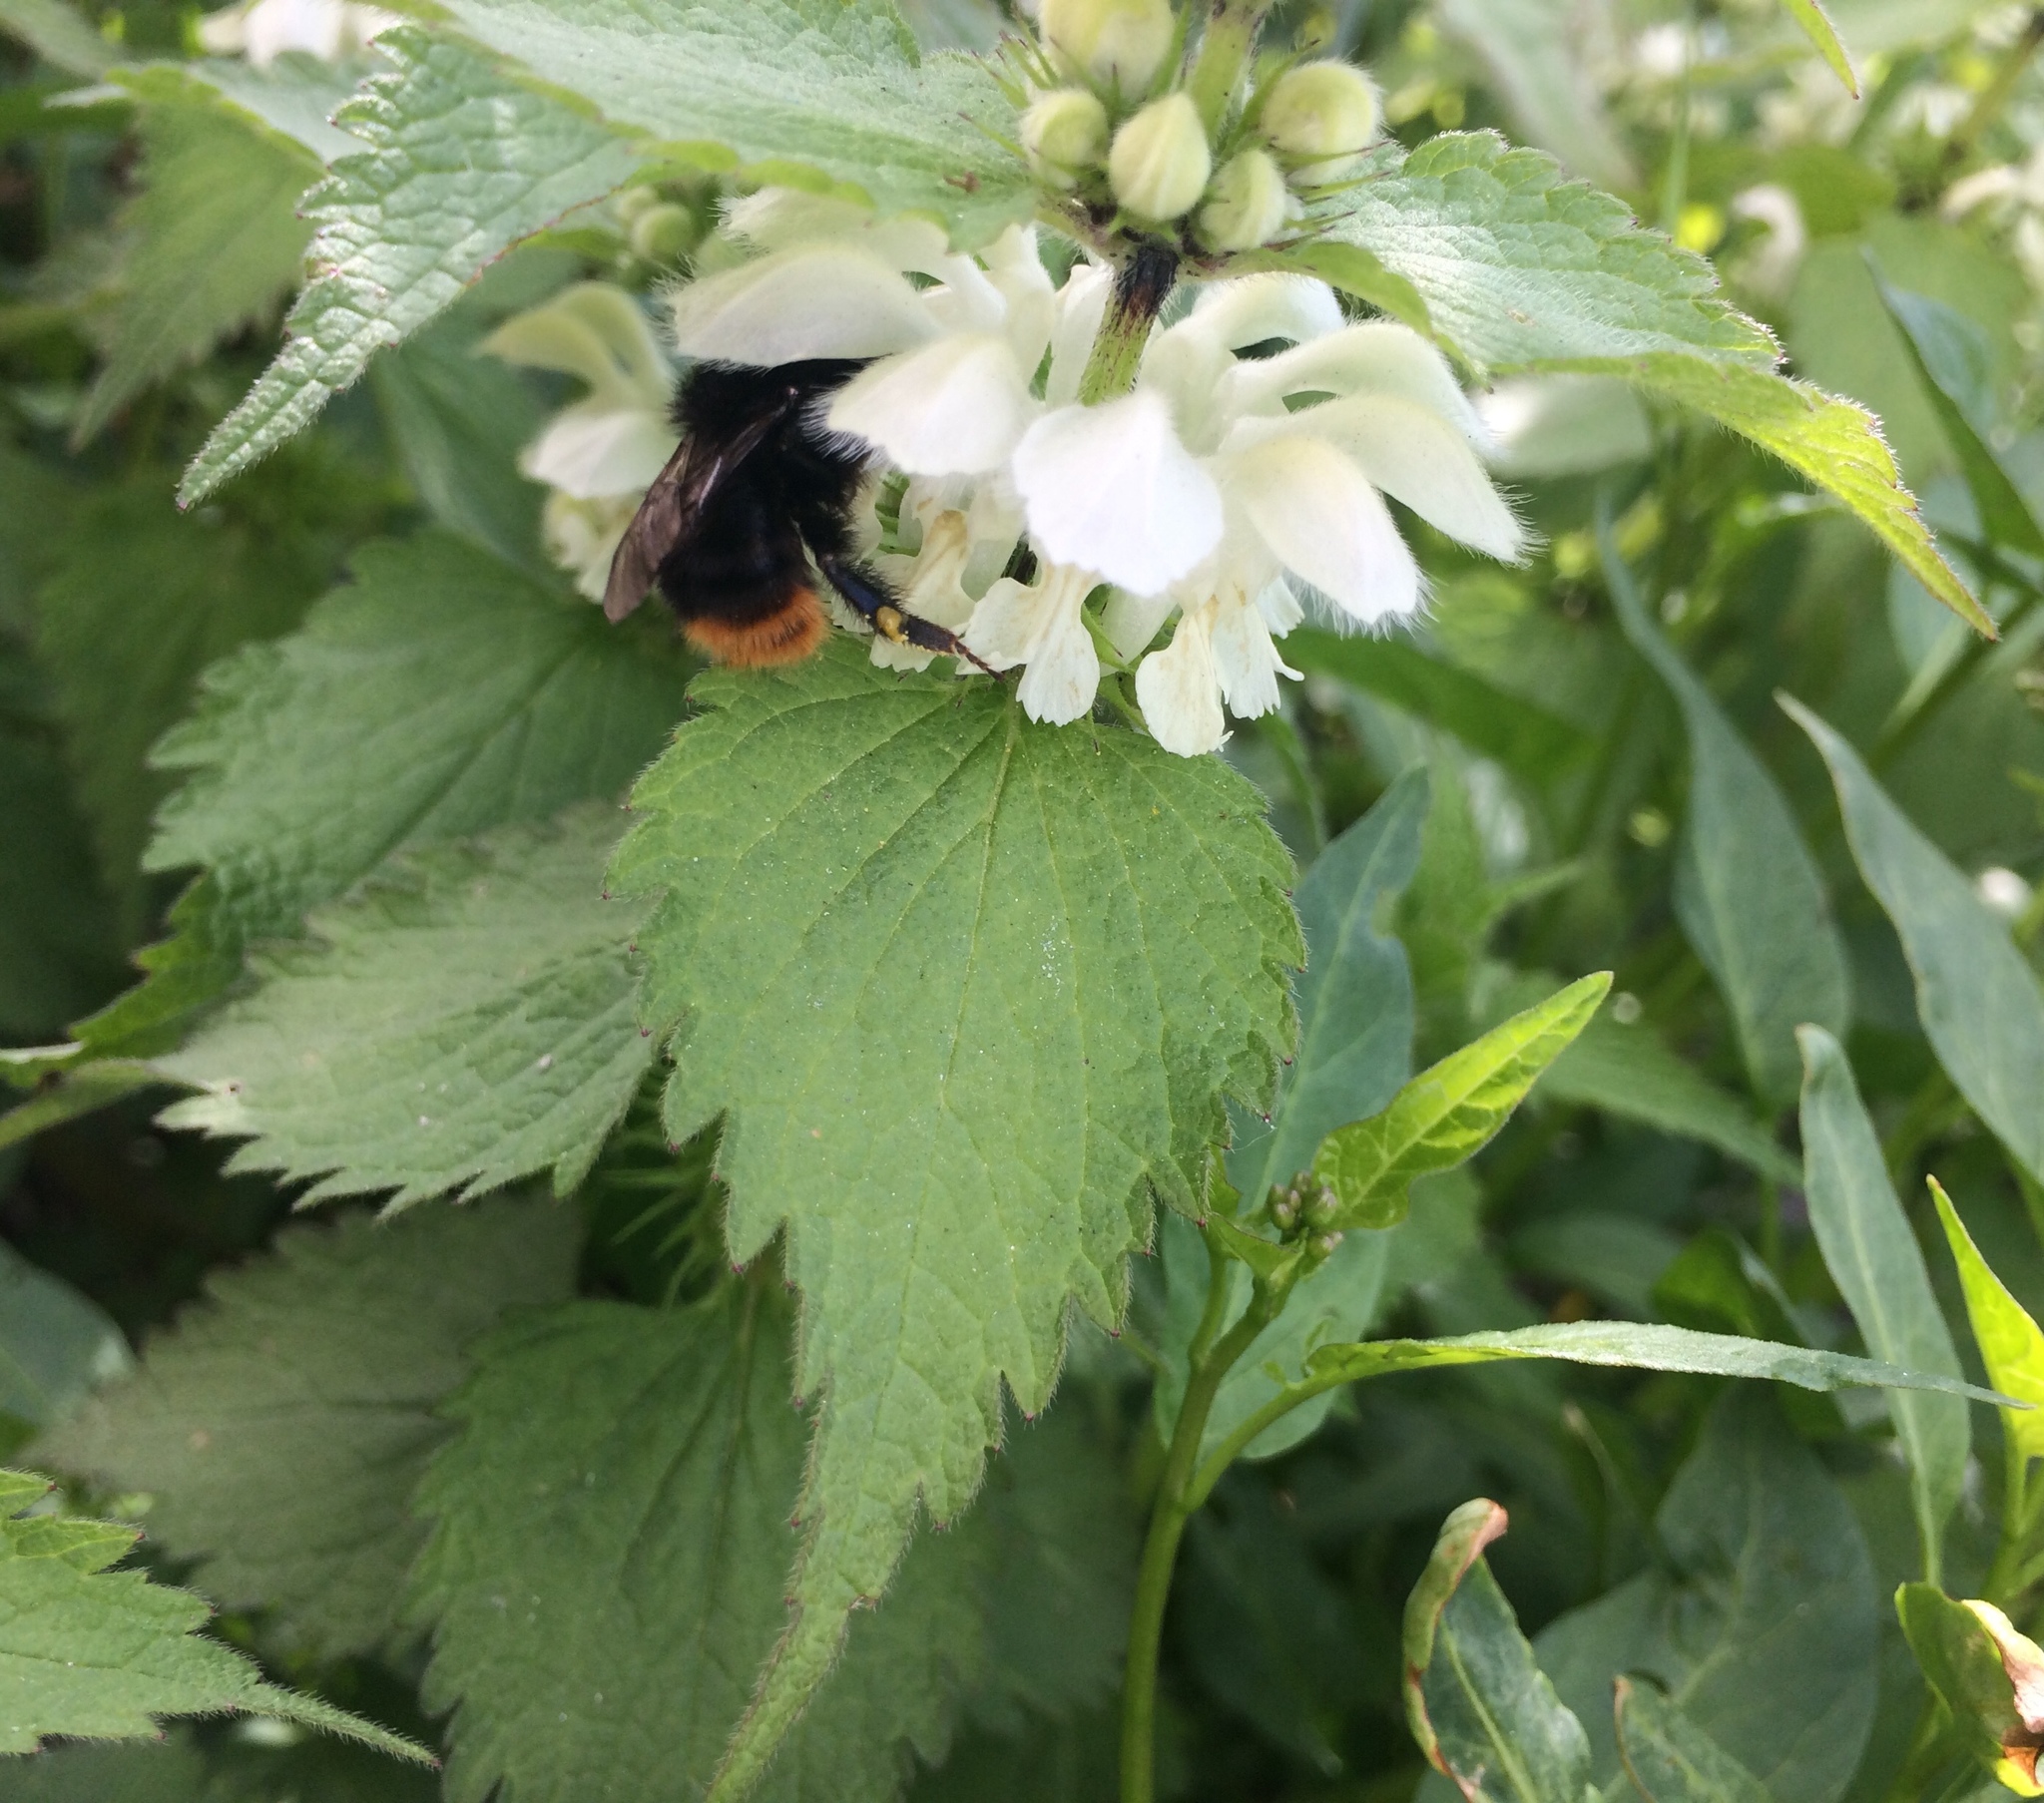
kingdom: Plantae
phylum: Tracheophyta
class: Magnoliopsida
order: Lamiales
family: Lamiaceae
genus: Lamium
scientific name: Lamium album
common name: White dead-nettle
